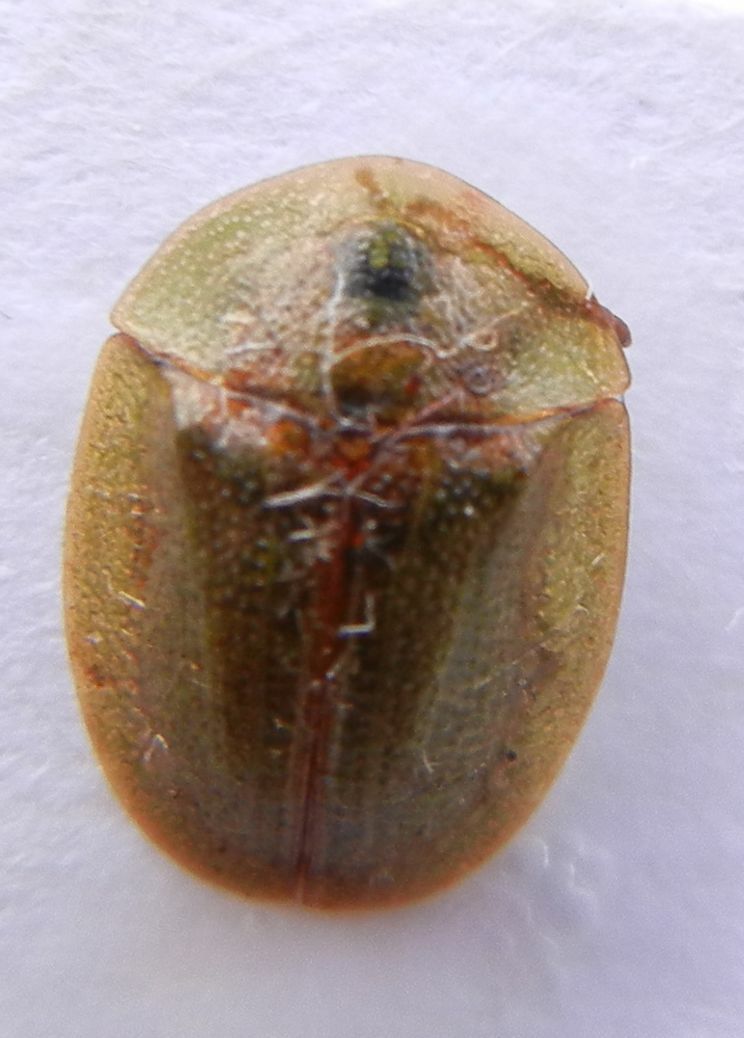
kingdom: Animalia
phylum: Arthropoda
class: Insecta
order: Coleoptera
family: Chrysomelidae
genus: Cassida
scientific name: Cassida rubiginosa
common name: Thistle tortoise beetle
